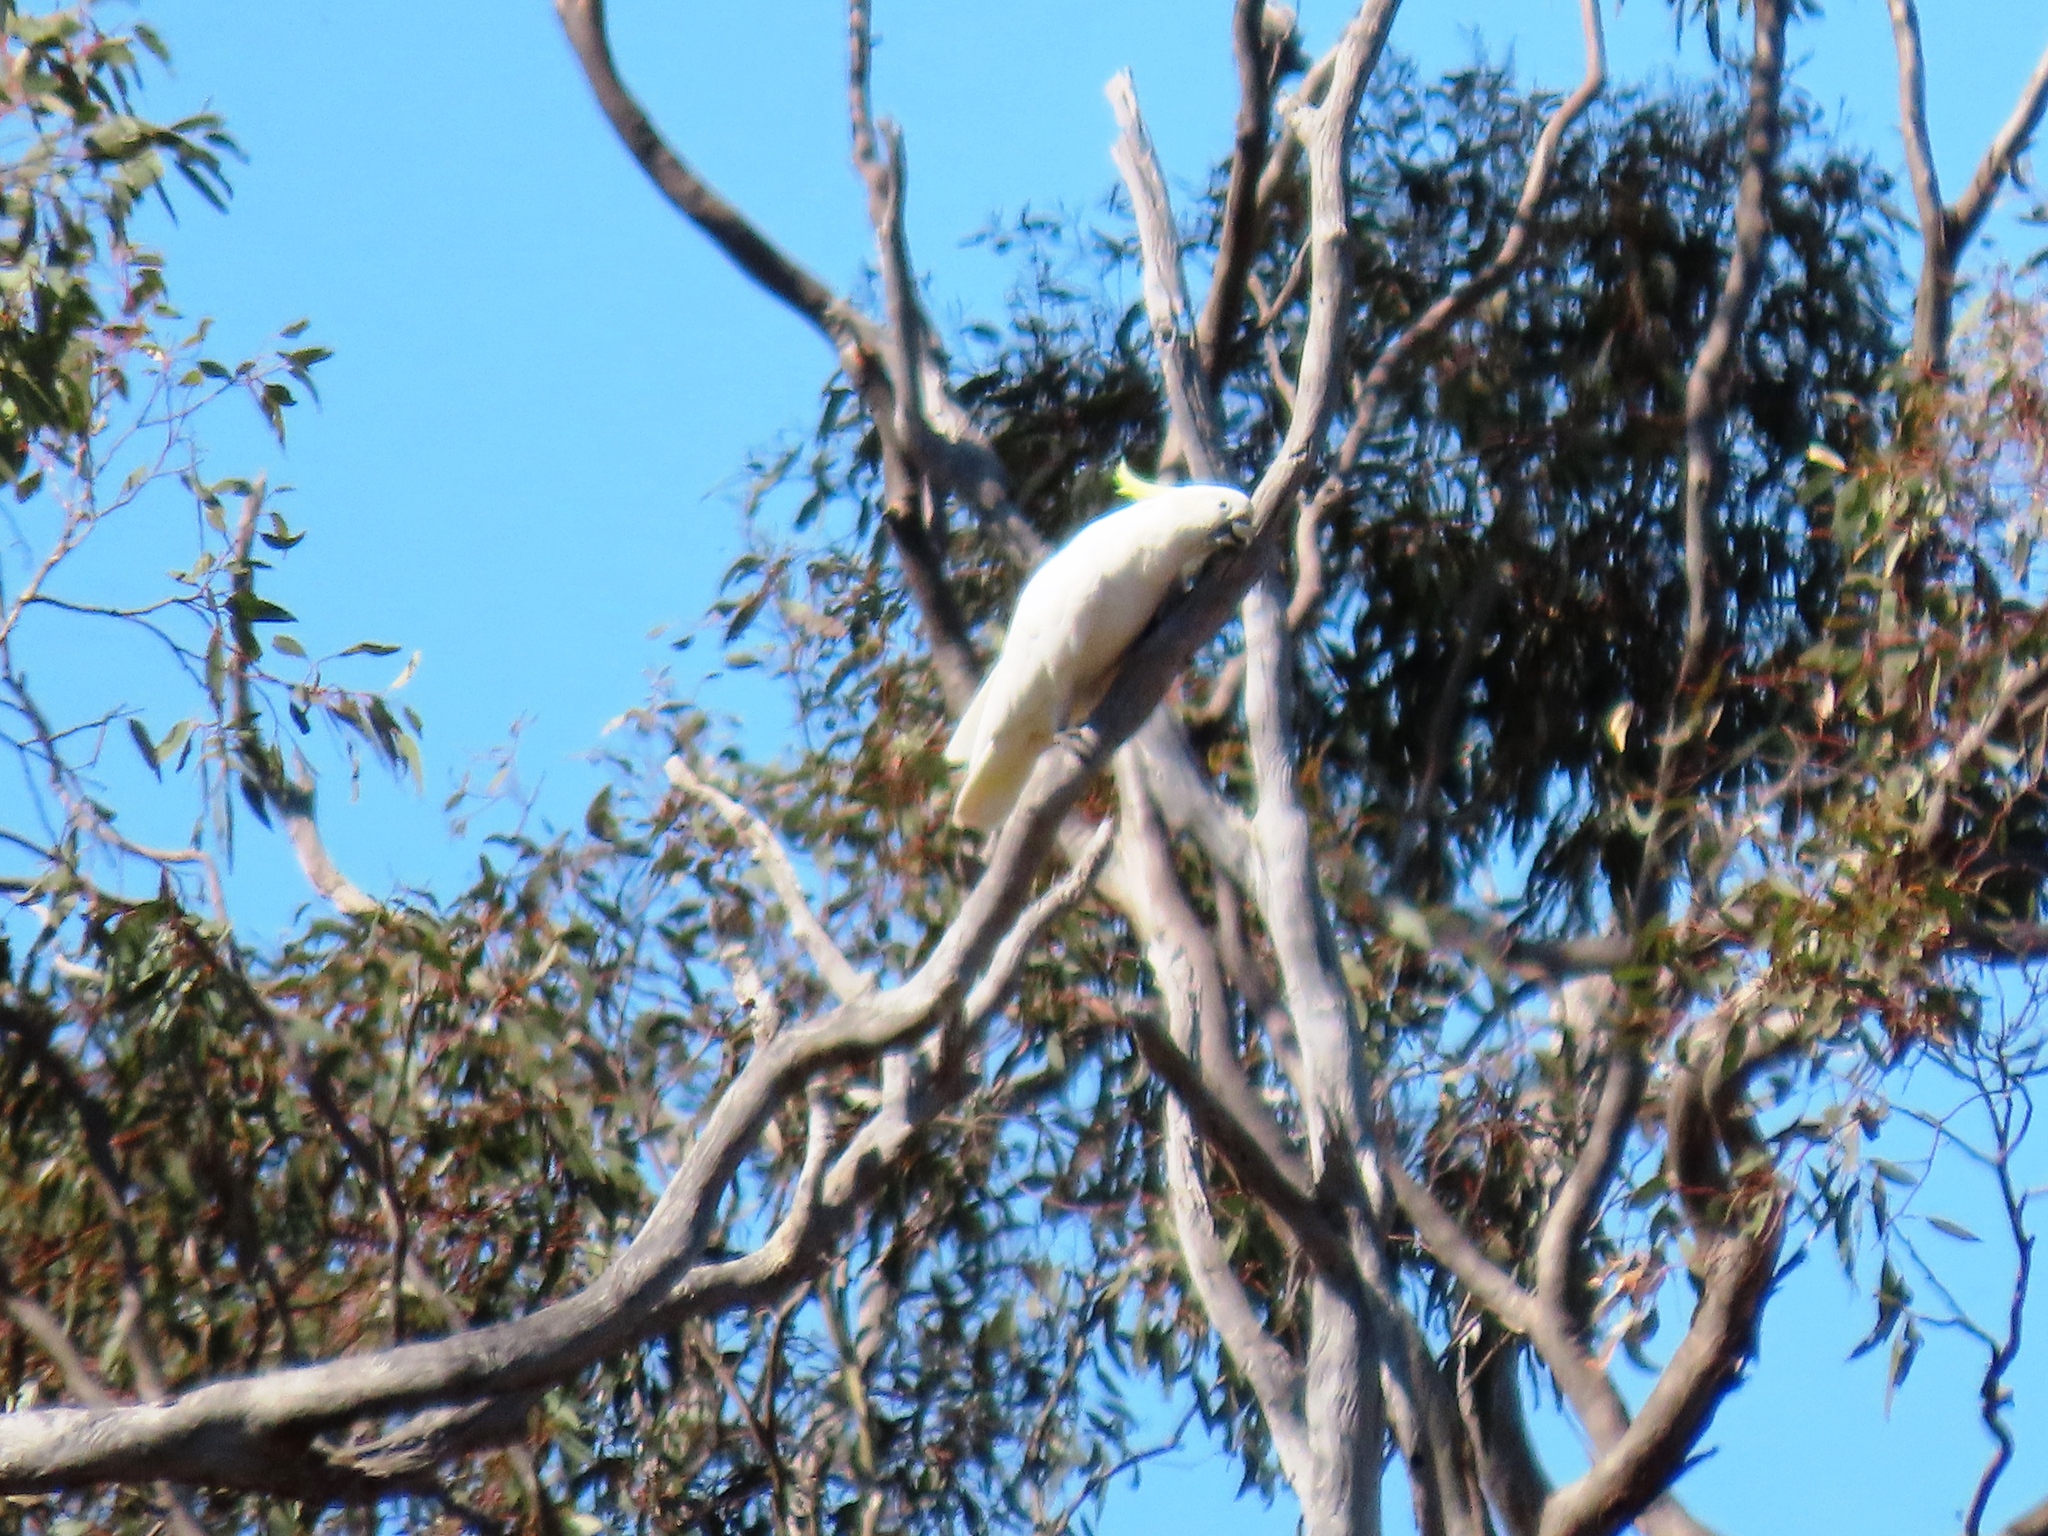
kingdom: Animalia
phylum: Chordata
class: Aves
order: Psittaciformes
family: Psittacidae
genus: Cacatua
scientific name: Cacatua galerita
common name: Sulphur-crested cockatoo
